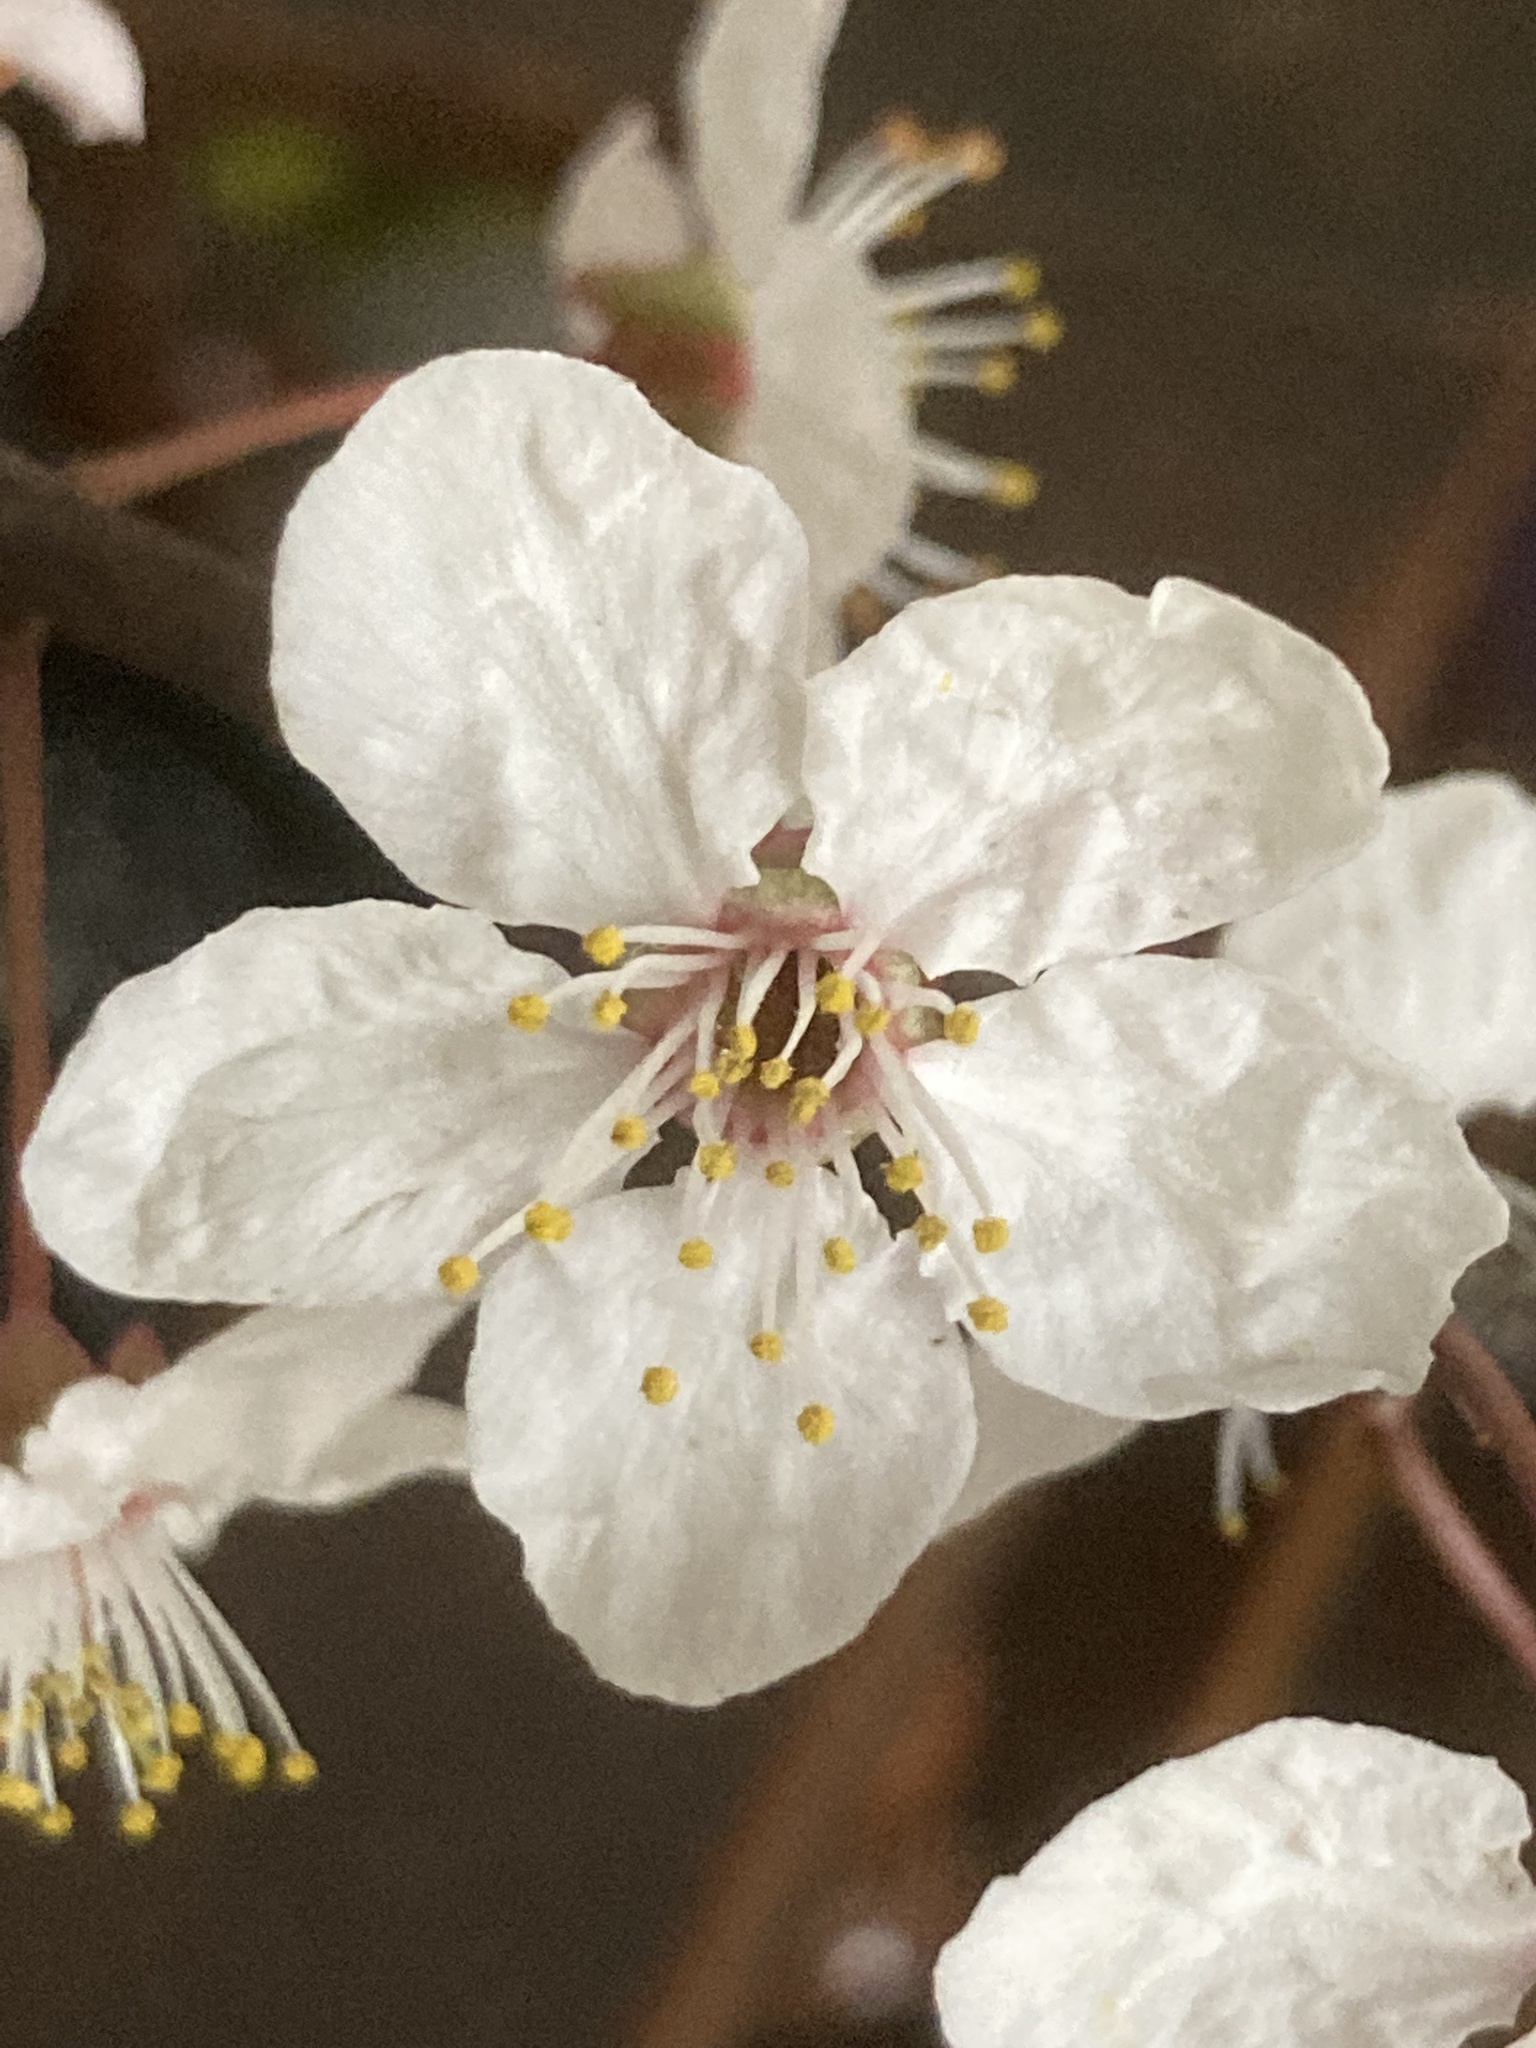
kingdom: Plantae
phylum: Tracheophyta
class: Magnoliopsida
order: Rosales
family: Rosaceae
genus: Prunus
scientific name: Prunus cerasifera
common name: Cherry plum
